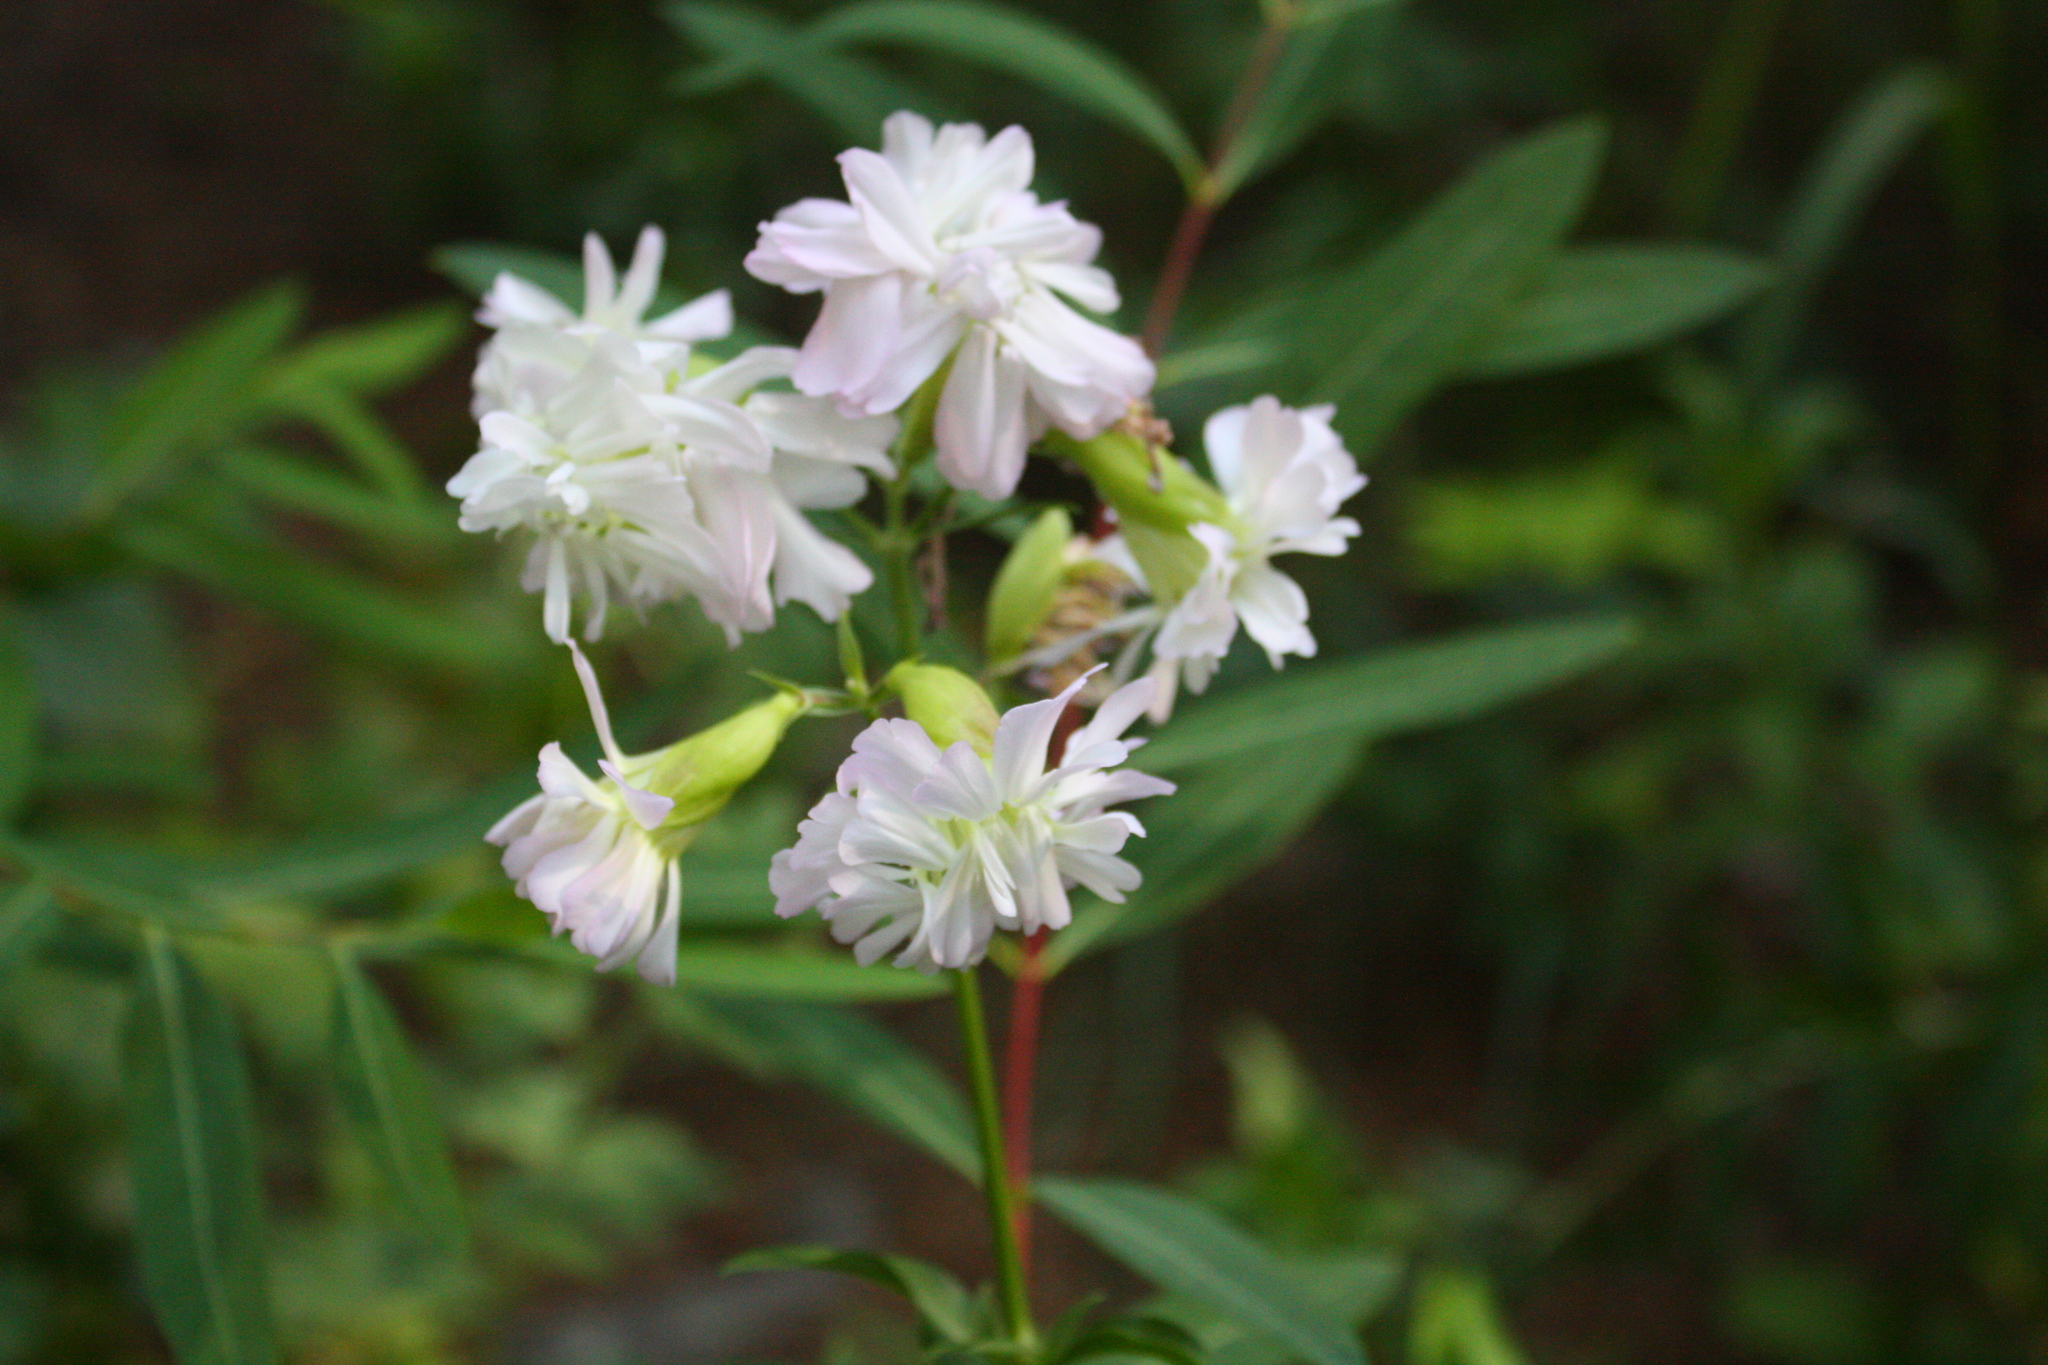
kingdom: Plantae
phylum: Tracheophyta
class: Magnoliopsida
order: Caryophyllales
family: Caryophyllaceae
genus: Saponaria
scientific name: Saponaria officinalis
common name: Soapwort
